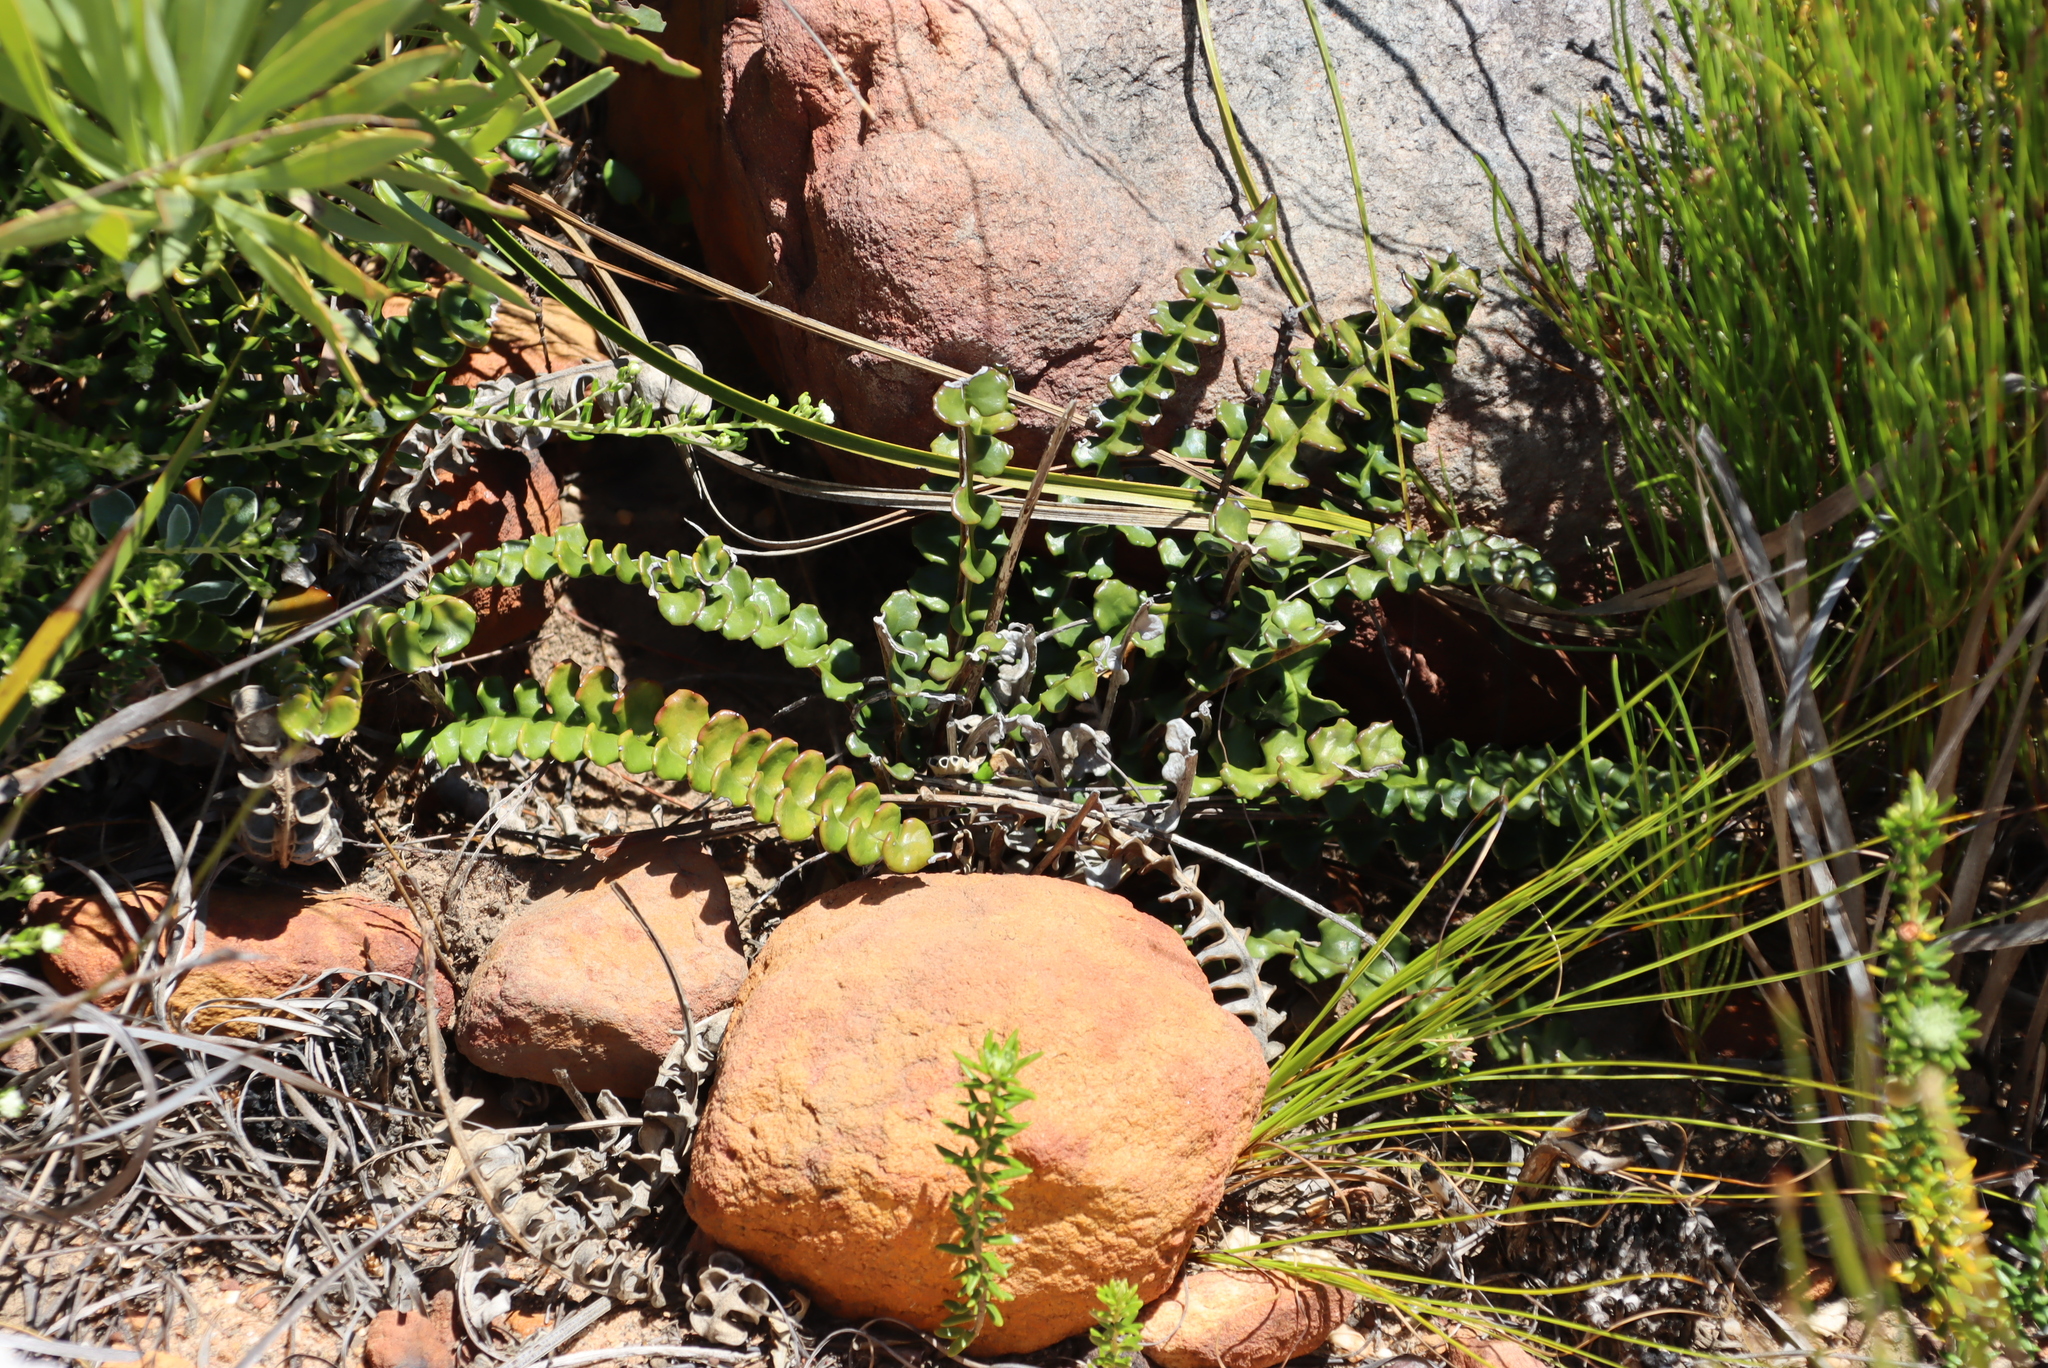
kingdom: Plantae
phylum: Tracheophyta
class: Magnoliopsida
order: Asterales
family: Asteraceae
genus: Gerbera
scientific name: Gerbera linnaei
